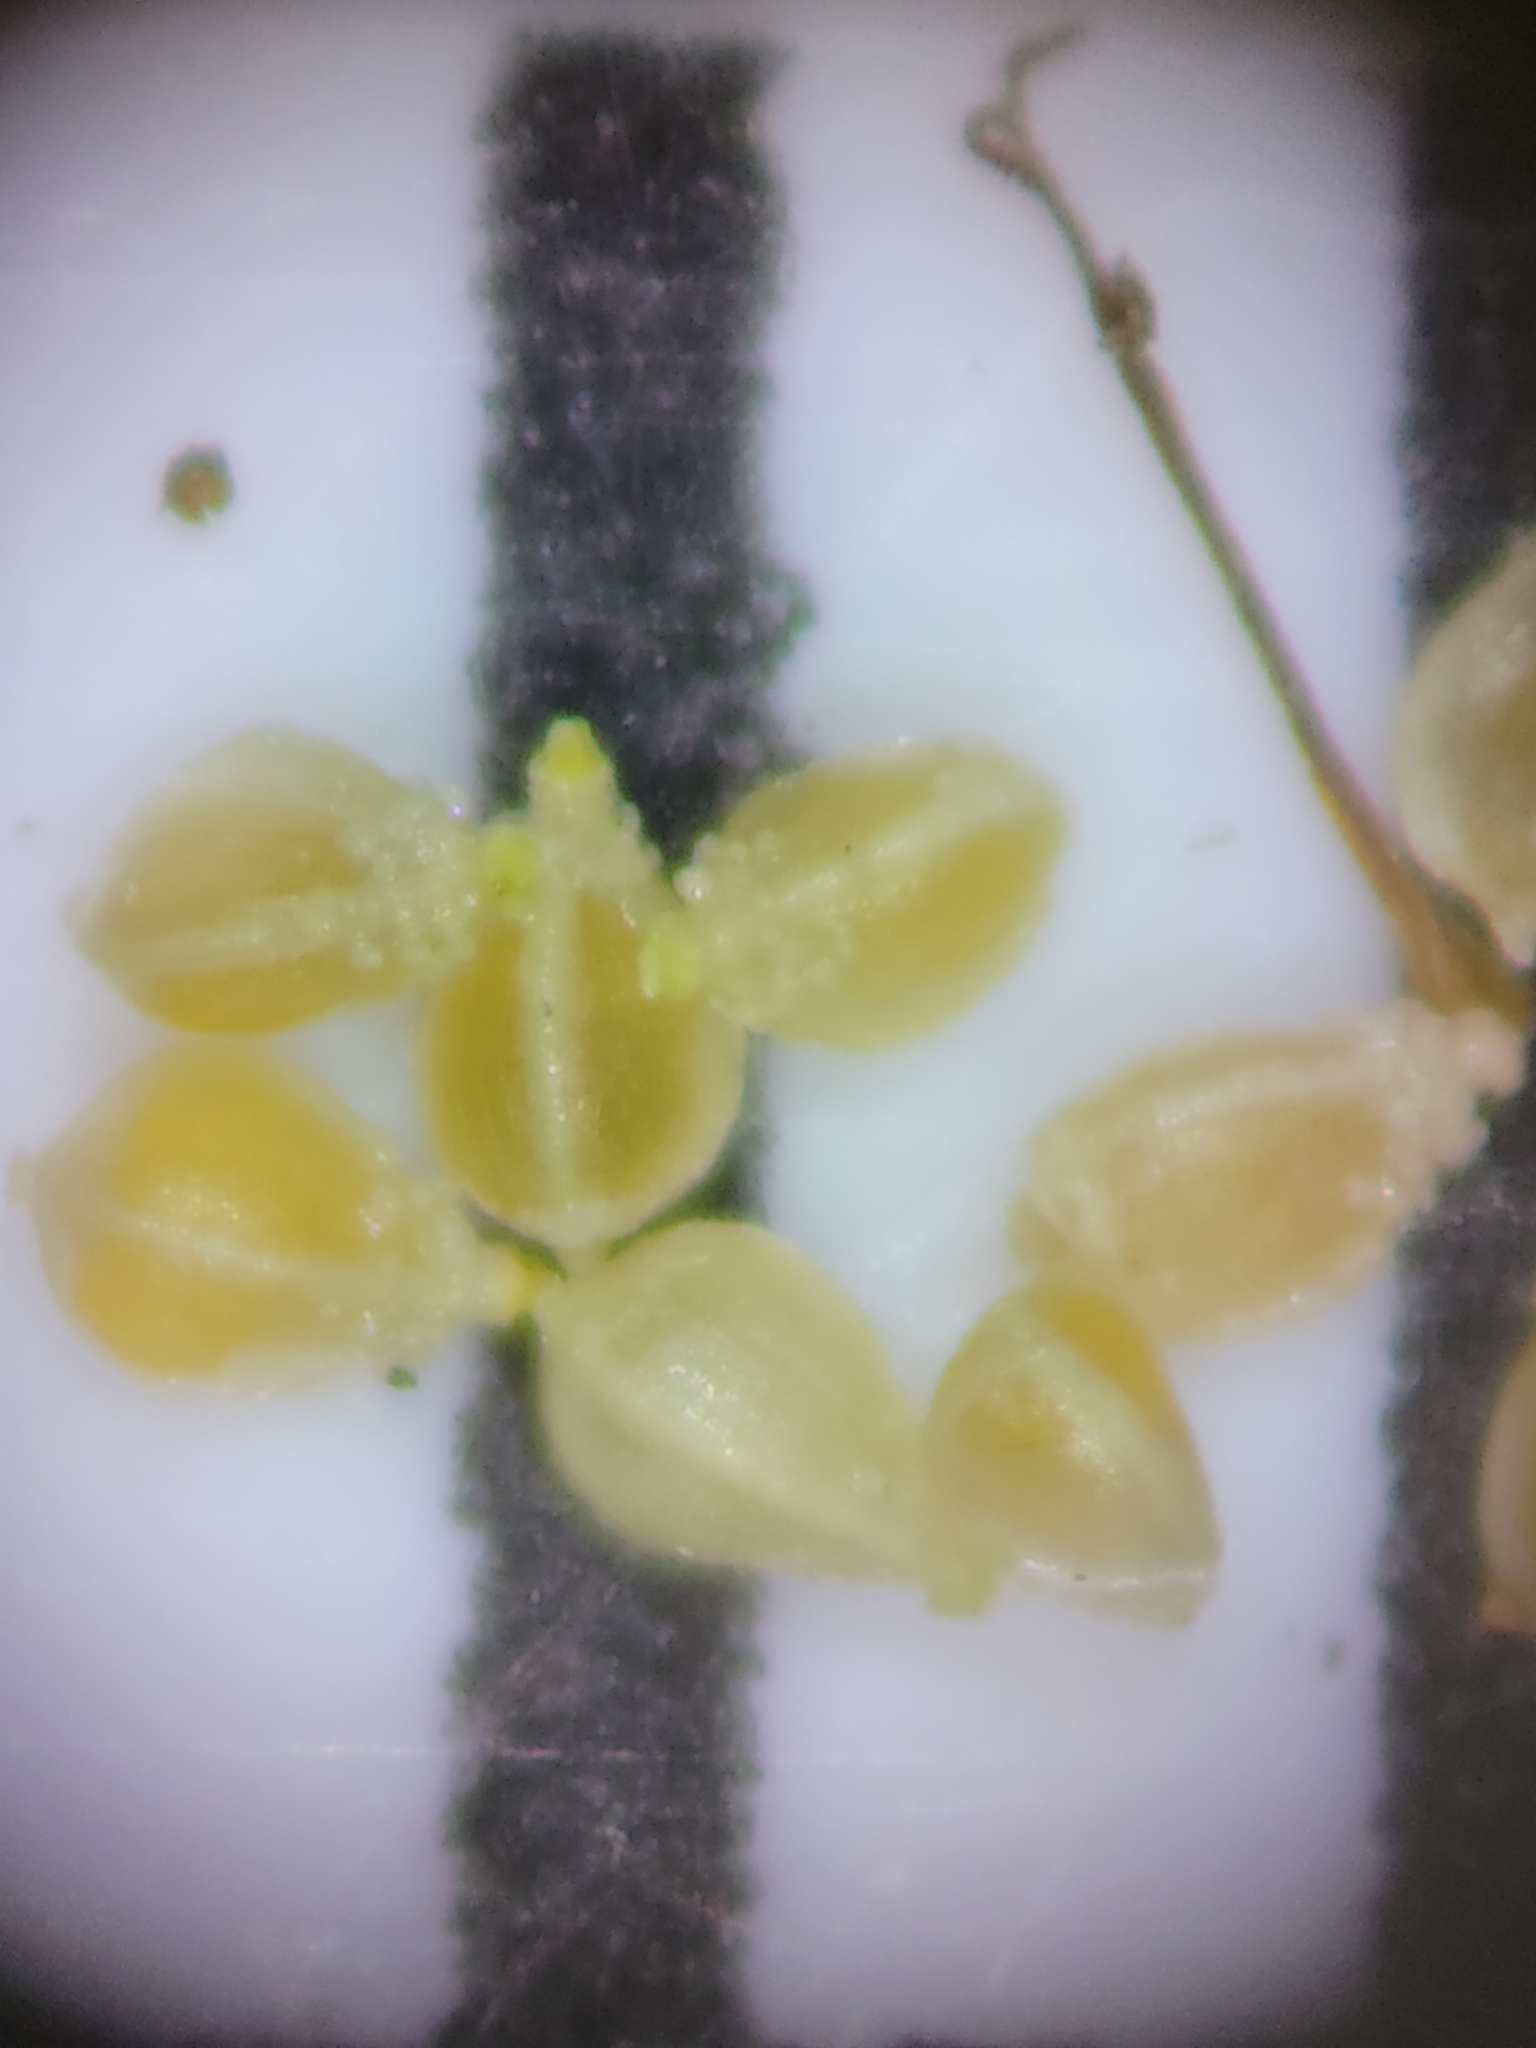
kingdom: Plantae
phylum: Tracheophyta
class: Liliopsida
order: Poales
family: Cyperaceae
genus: Fimbristylis
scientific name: Fimbristylis autumnalis
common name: Slender fimbristylis
